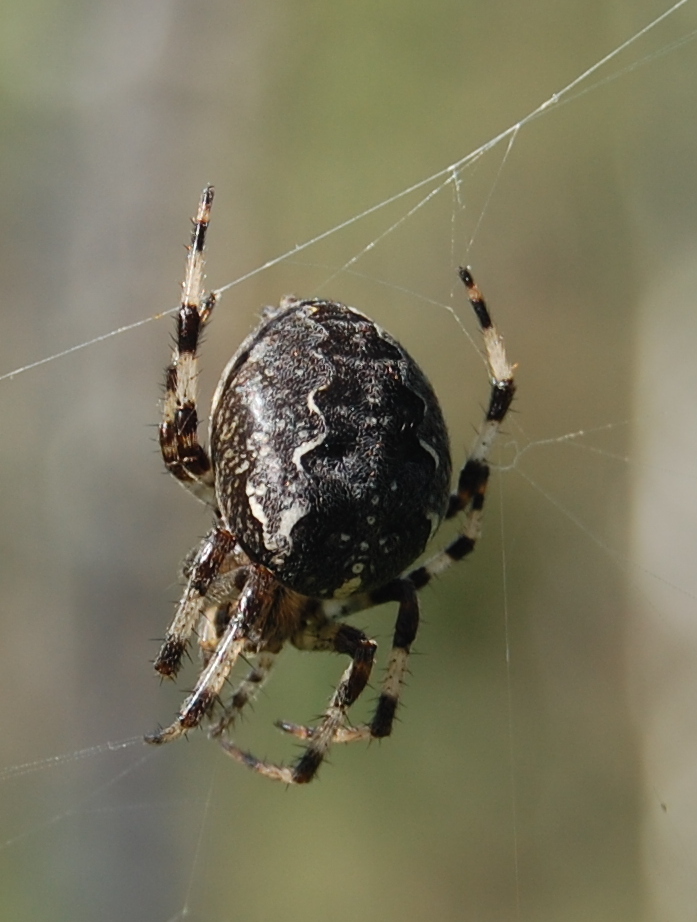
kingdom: Animalia
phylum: Arthropoda
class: Arachnida
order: Araneae
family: Araneidae
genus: Araneus
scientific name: Araneus diadematus
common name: Cross orbweaver
